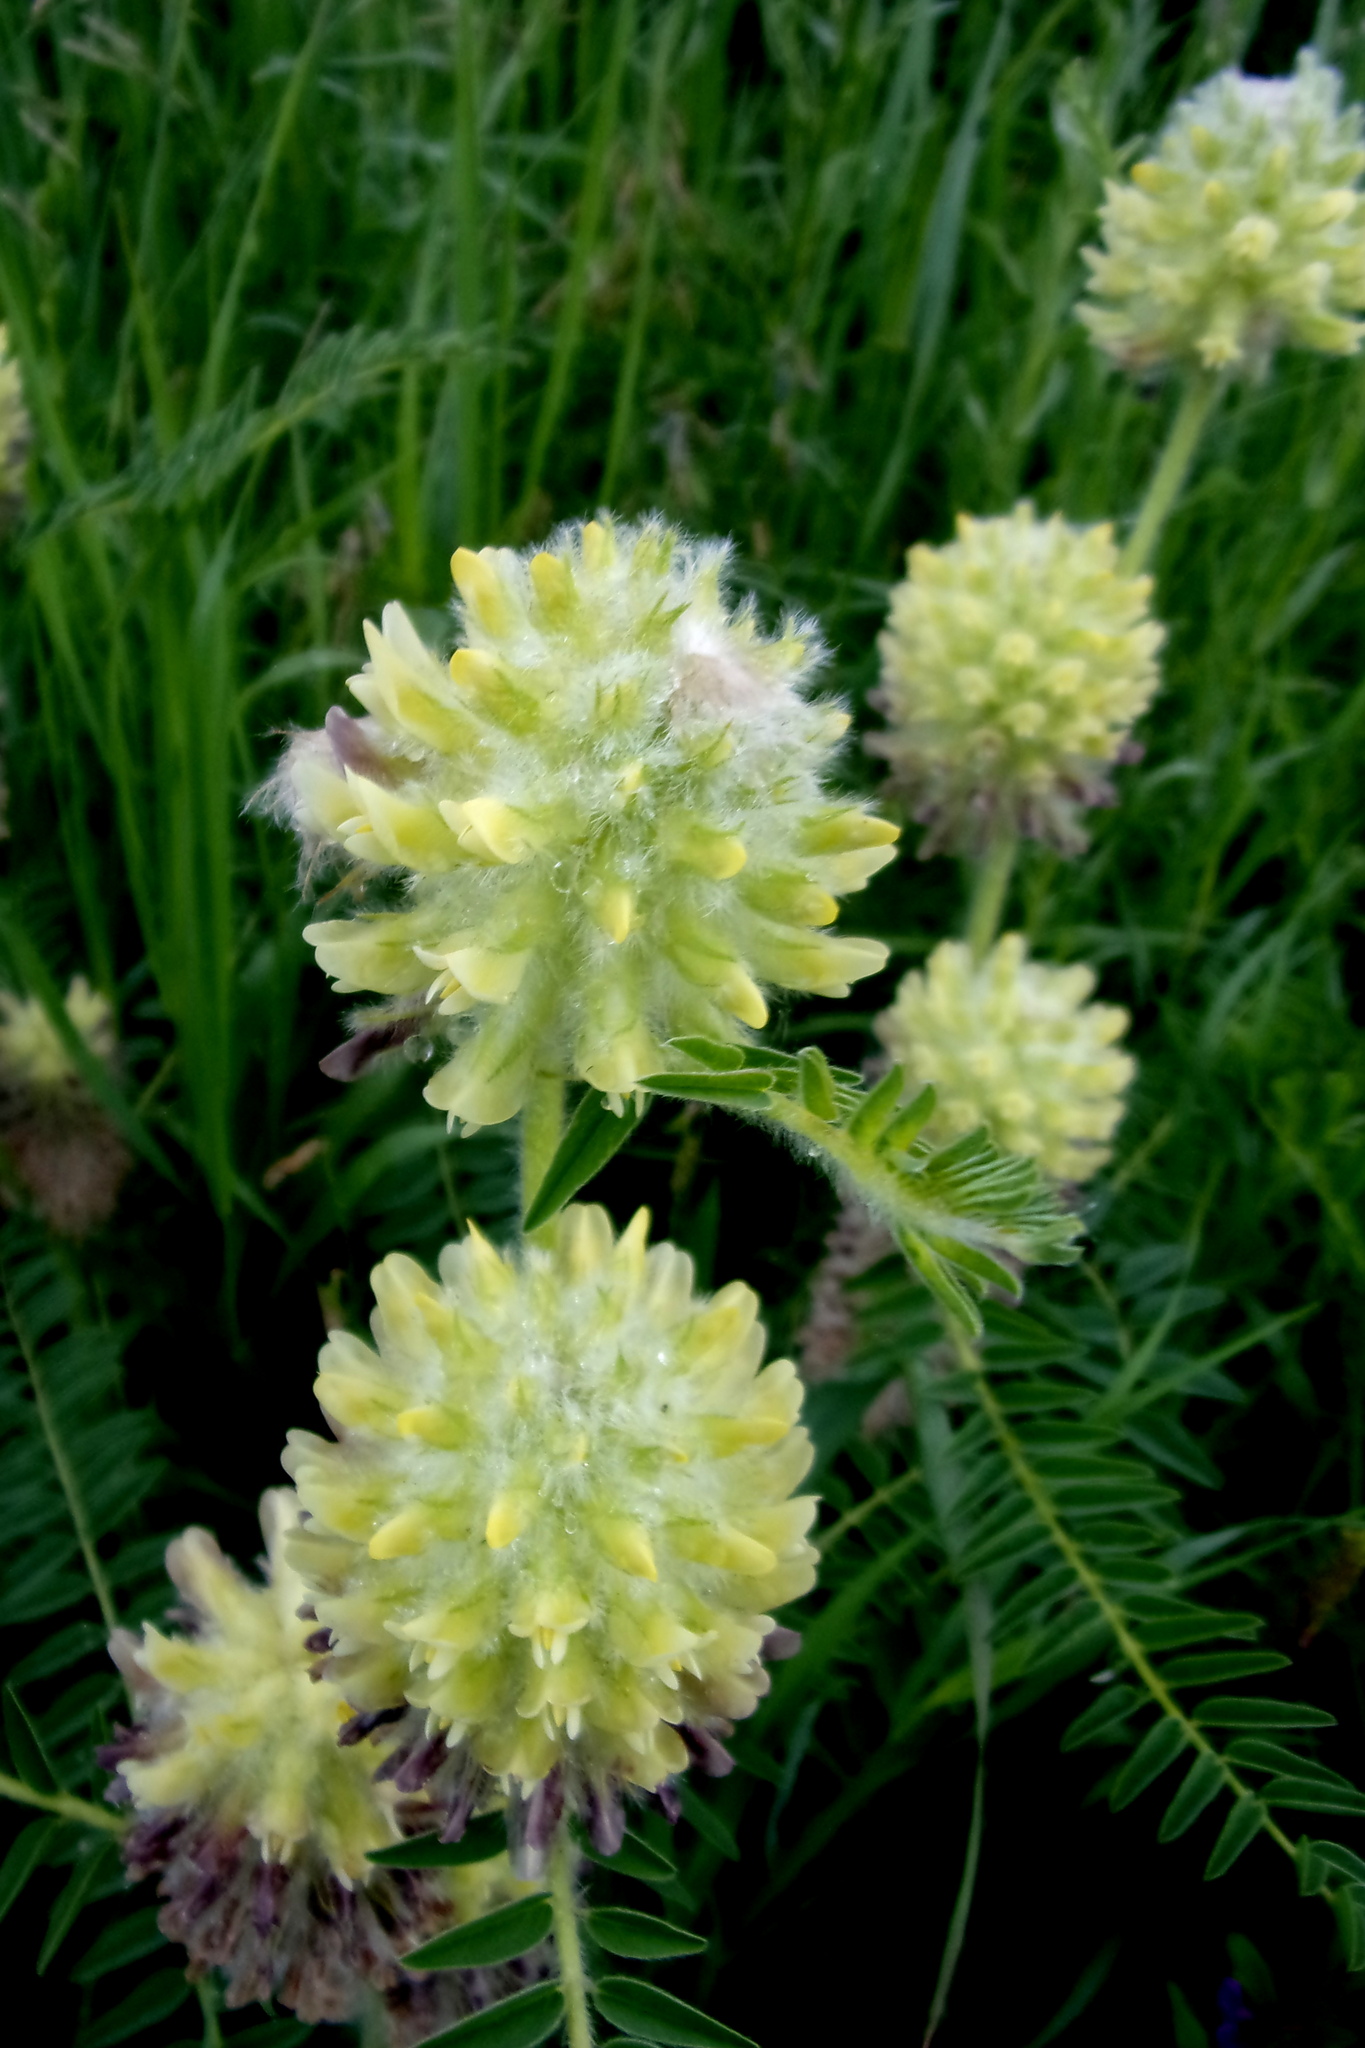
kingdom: Plantae
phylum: Tracheophyta
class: Magnoliopsida
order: Fabales
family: Fabaceae
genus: Astragalus
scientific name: Astragalus alopecurus
